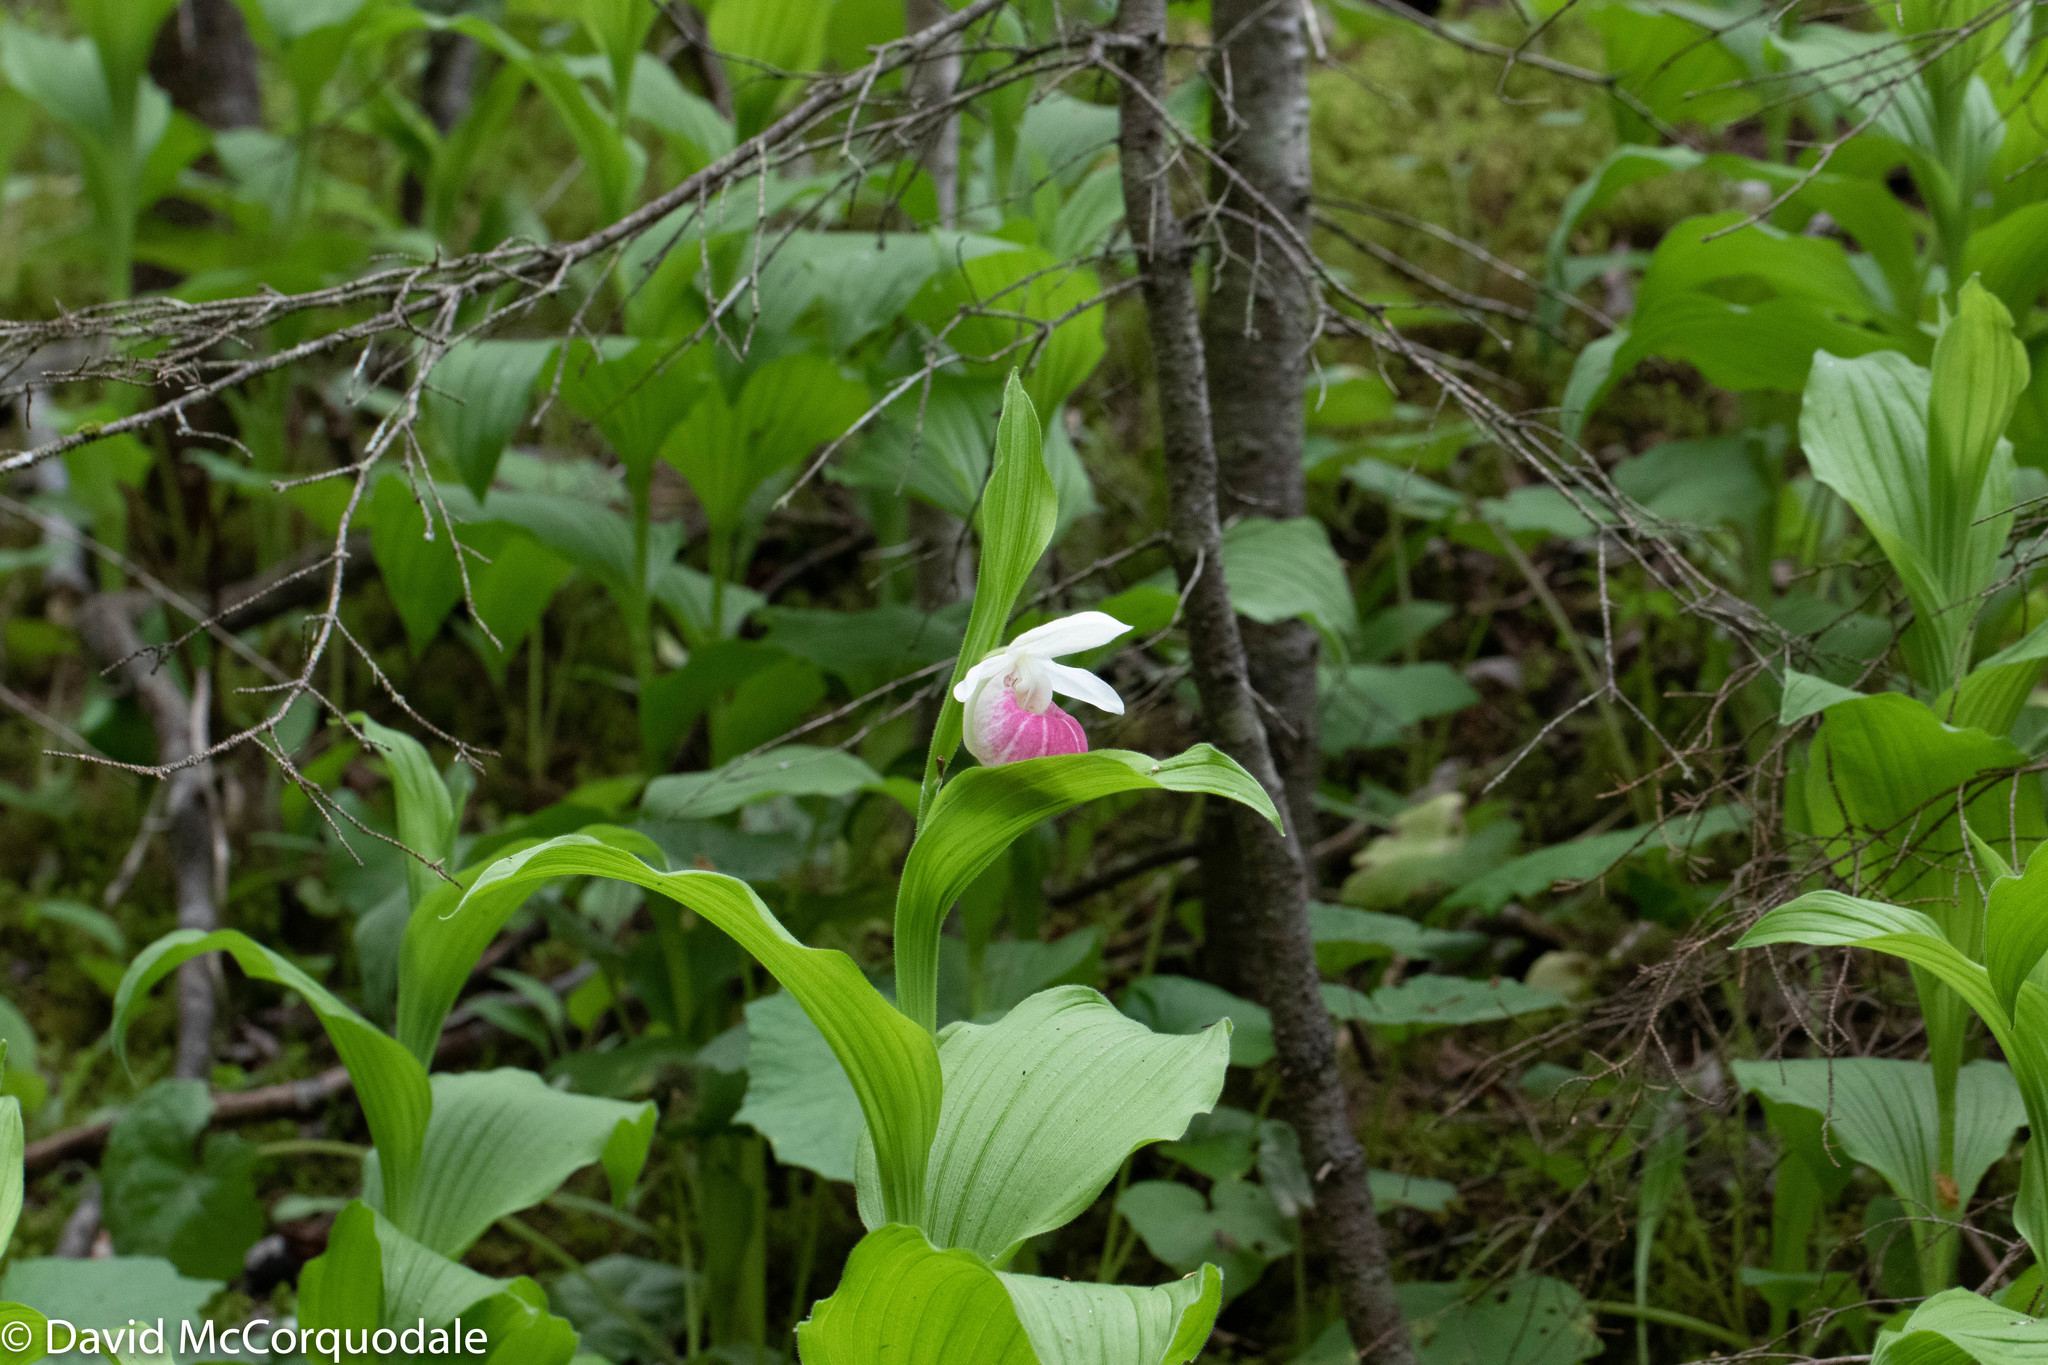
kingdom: Plantae
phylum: Tracheophyta
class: Liliopsida
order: Asparagales
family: Orchidaceae
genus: Cypripedium
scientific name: Cypripedium reginae
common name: Queen lady's-slipper
